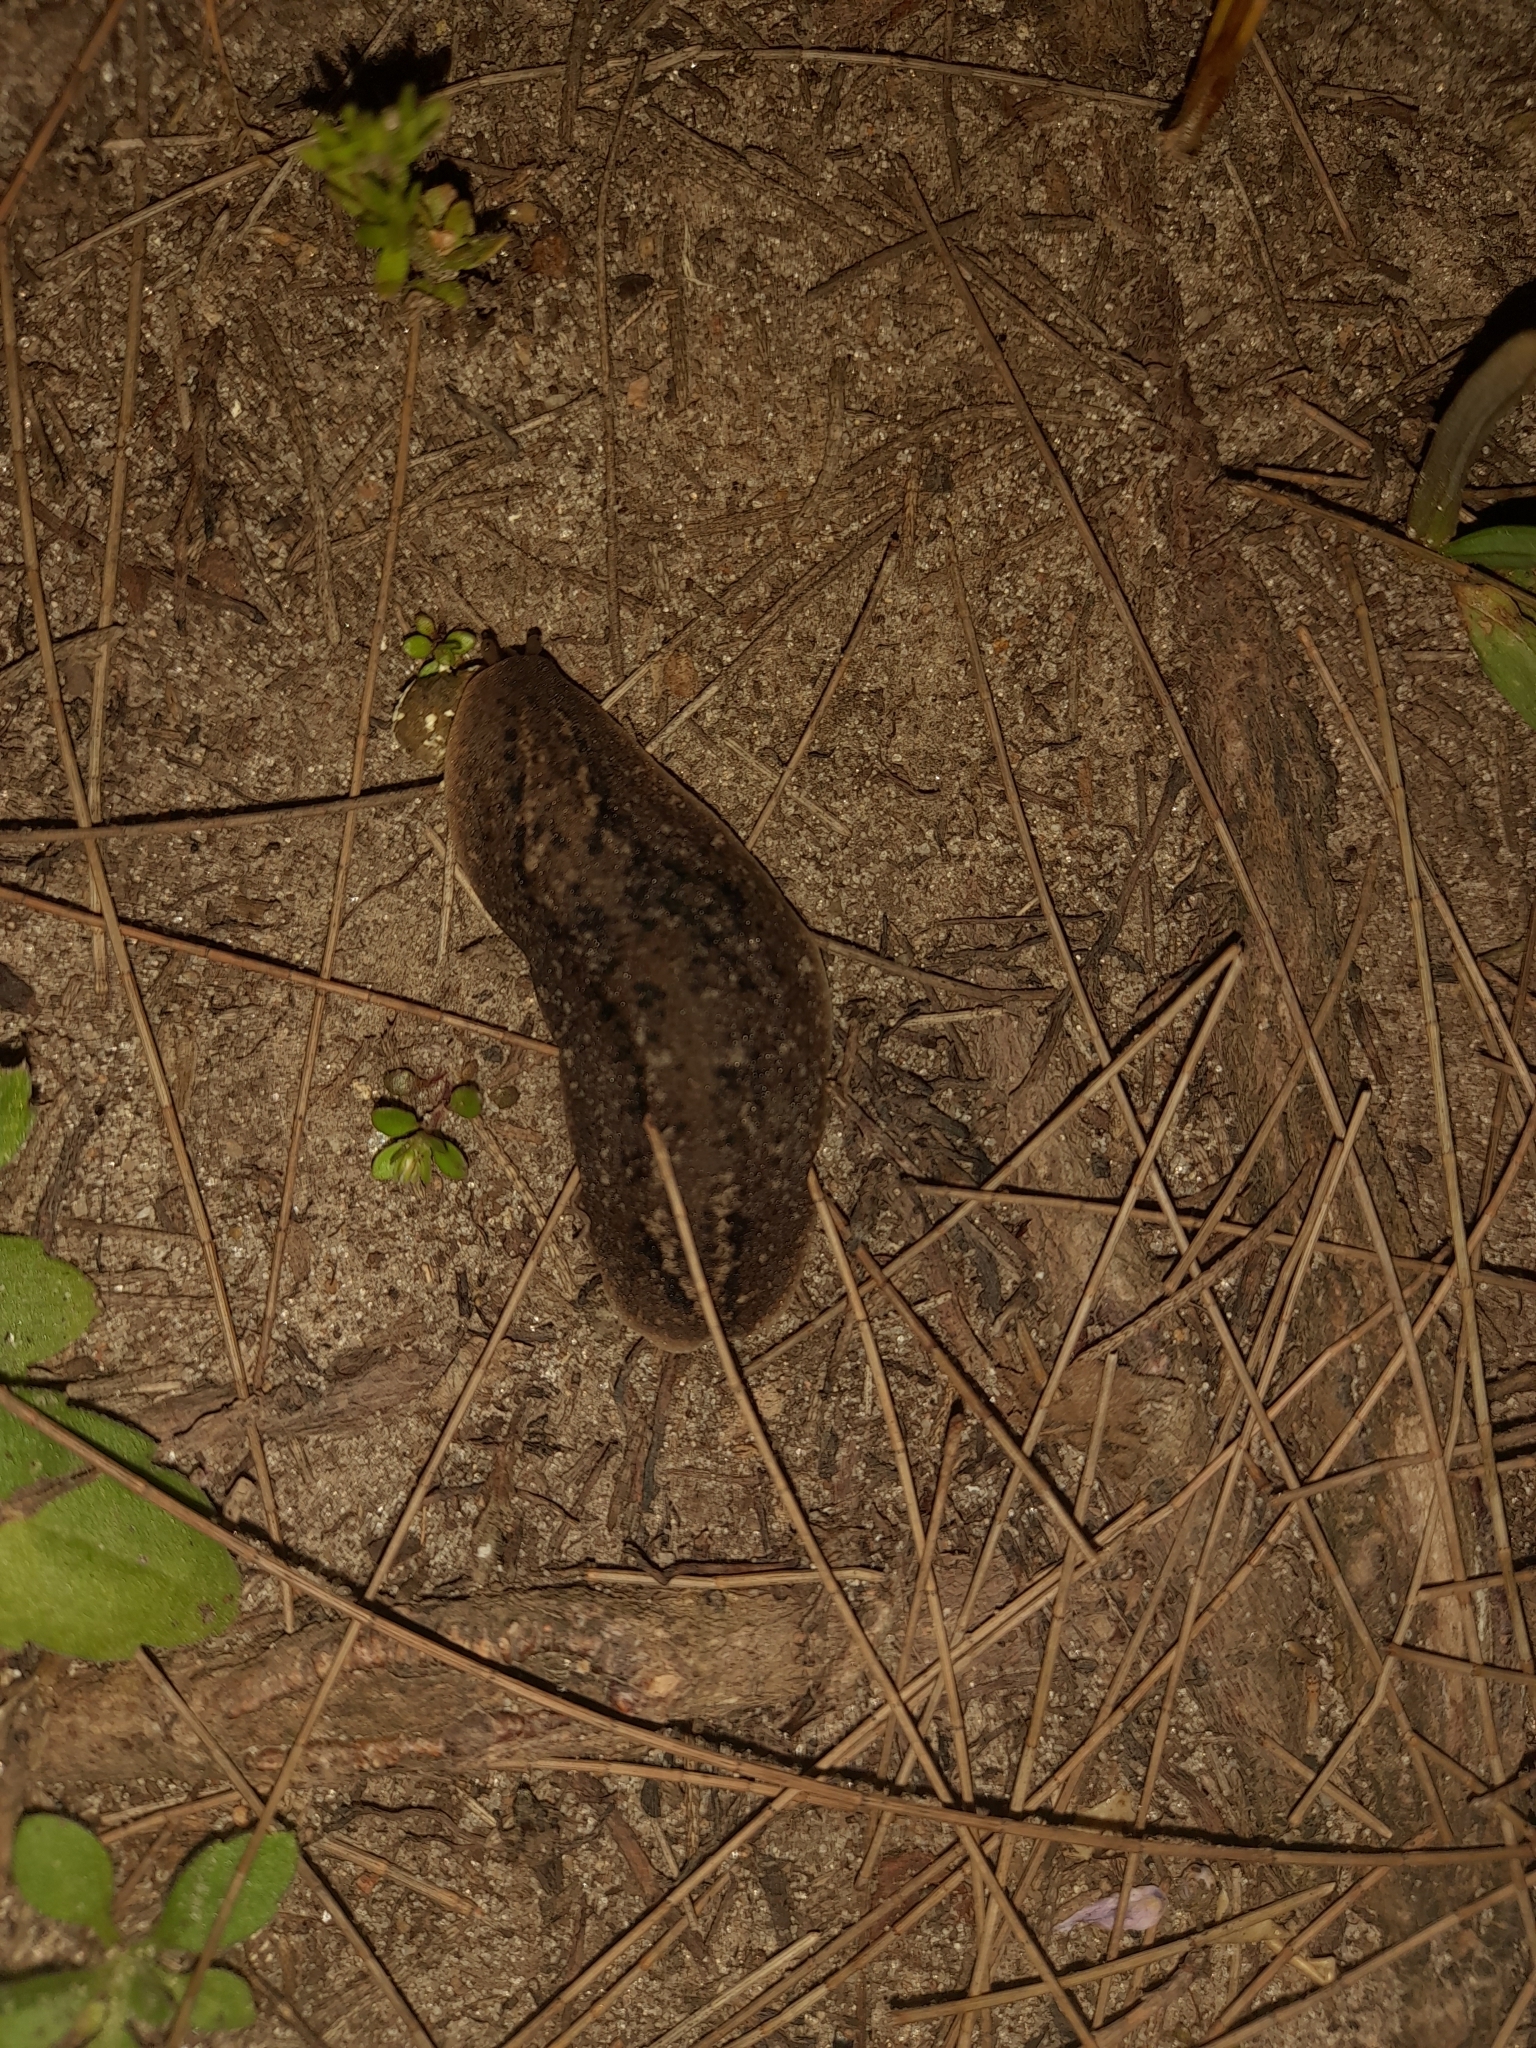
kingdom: Animalia
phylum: Mollusca
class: Gastropoda
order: Systellommatophora
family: Veronicellidae
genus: Phyllocaulis
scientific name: Phyllocaulis soleiformis
